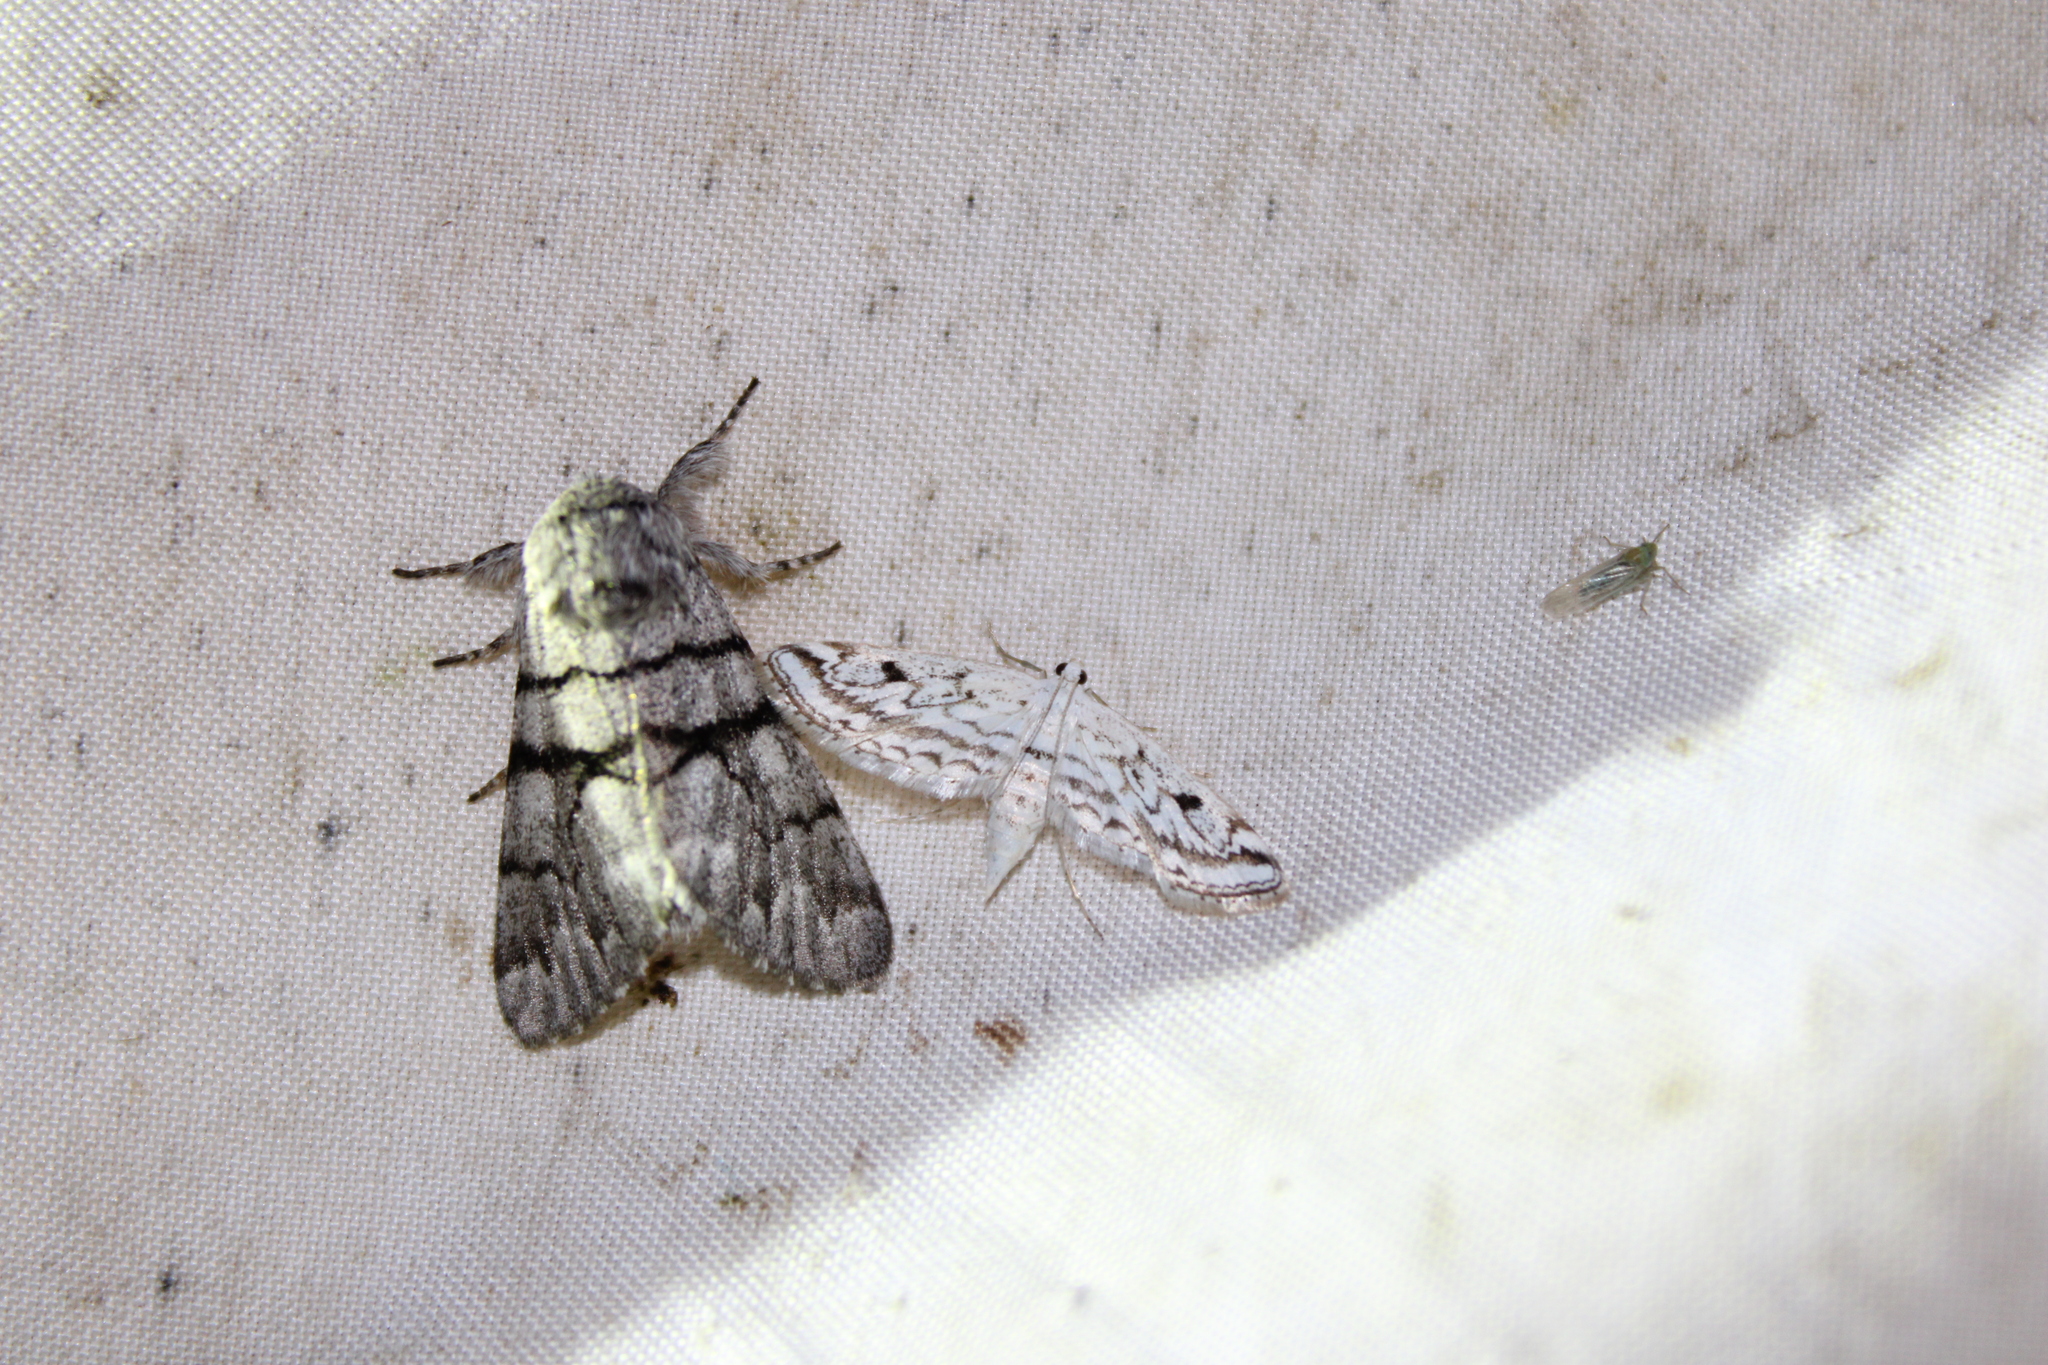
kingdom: Animalia
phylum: Arthropoda
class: Insecta
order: Lepidoptera
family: Crambidae
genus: Parapoynx
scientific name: Parapoynx allionealis
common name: Bladderwort casemaker
